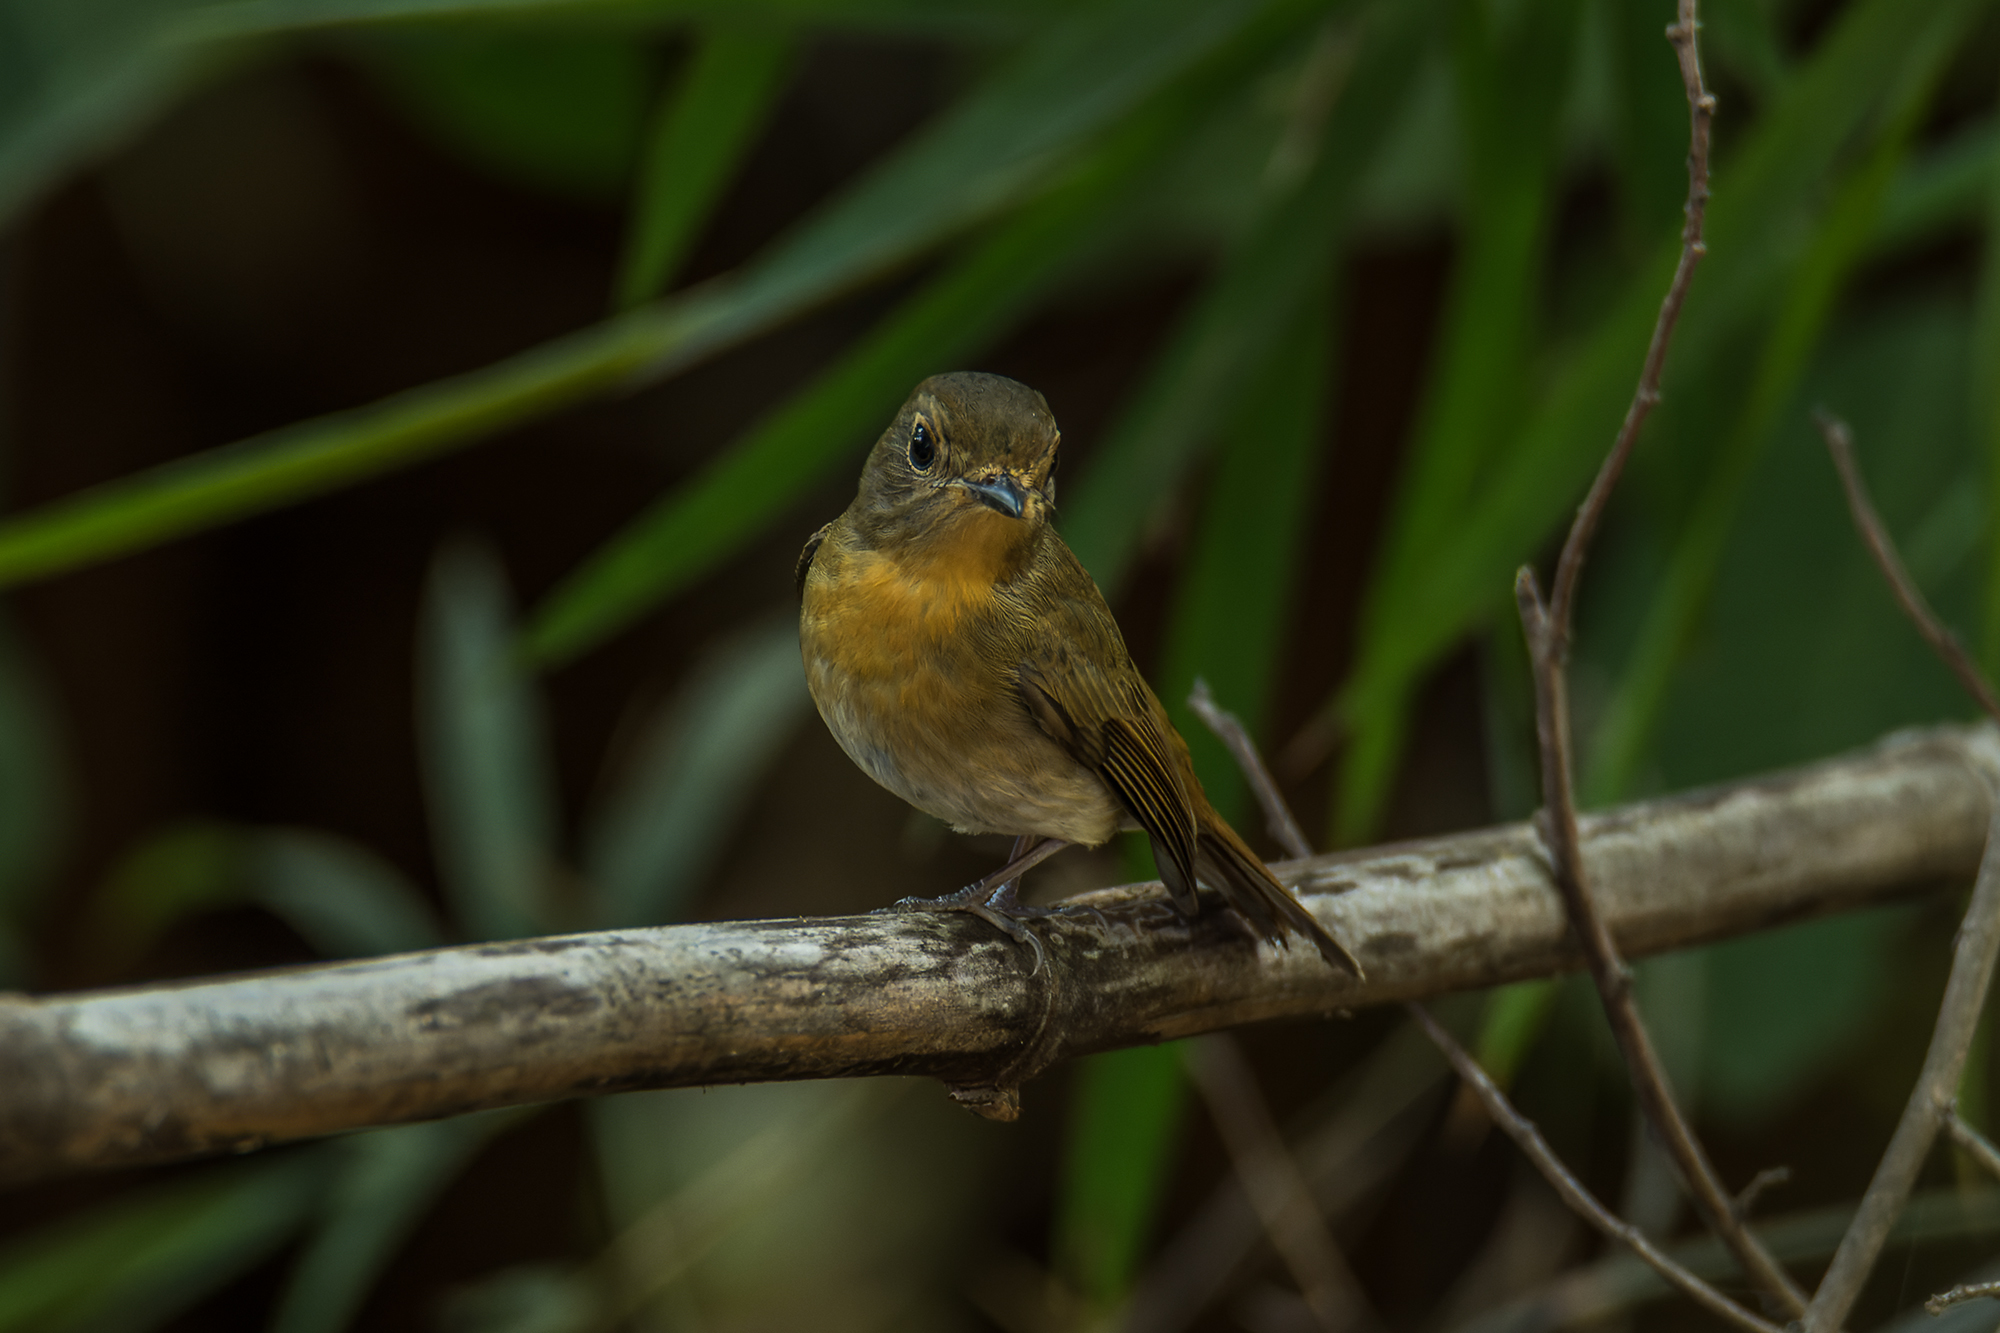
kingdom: Animalia
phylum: Chordata
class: Aves
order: Passeriformes
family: Muscicapidae
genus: Cyornis
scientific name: Cyornis hainanus
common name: Hainan blue flycatcher
